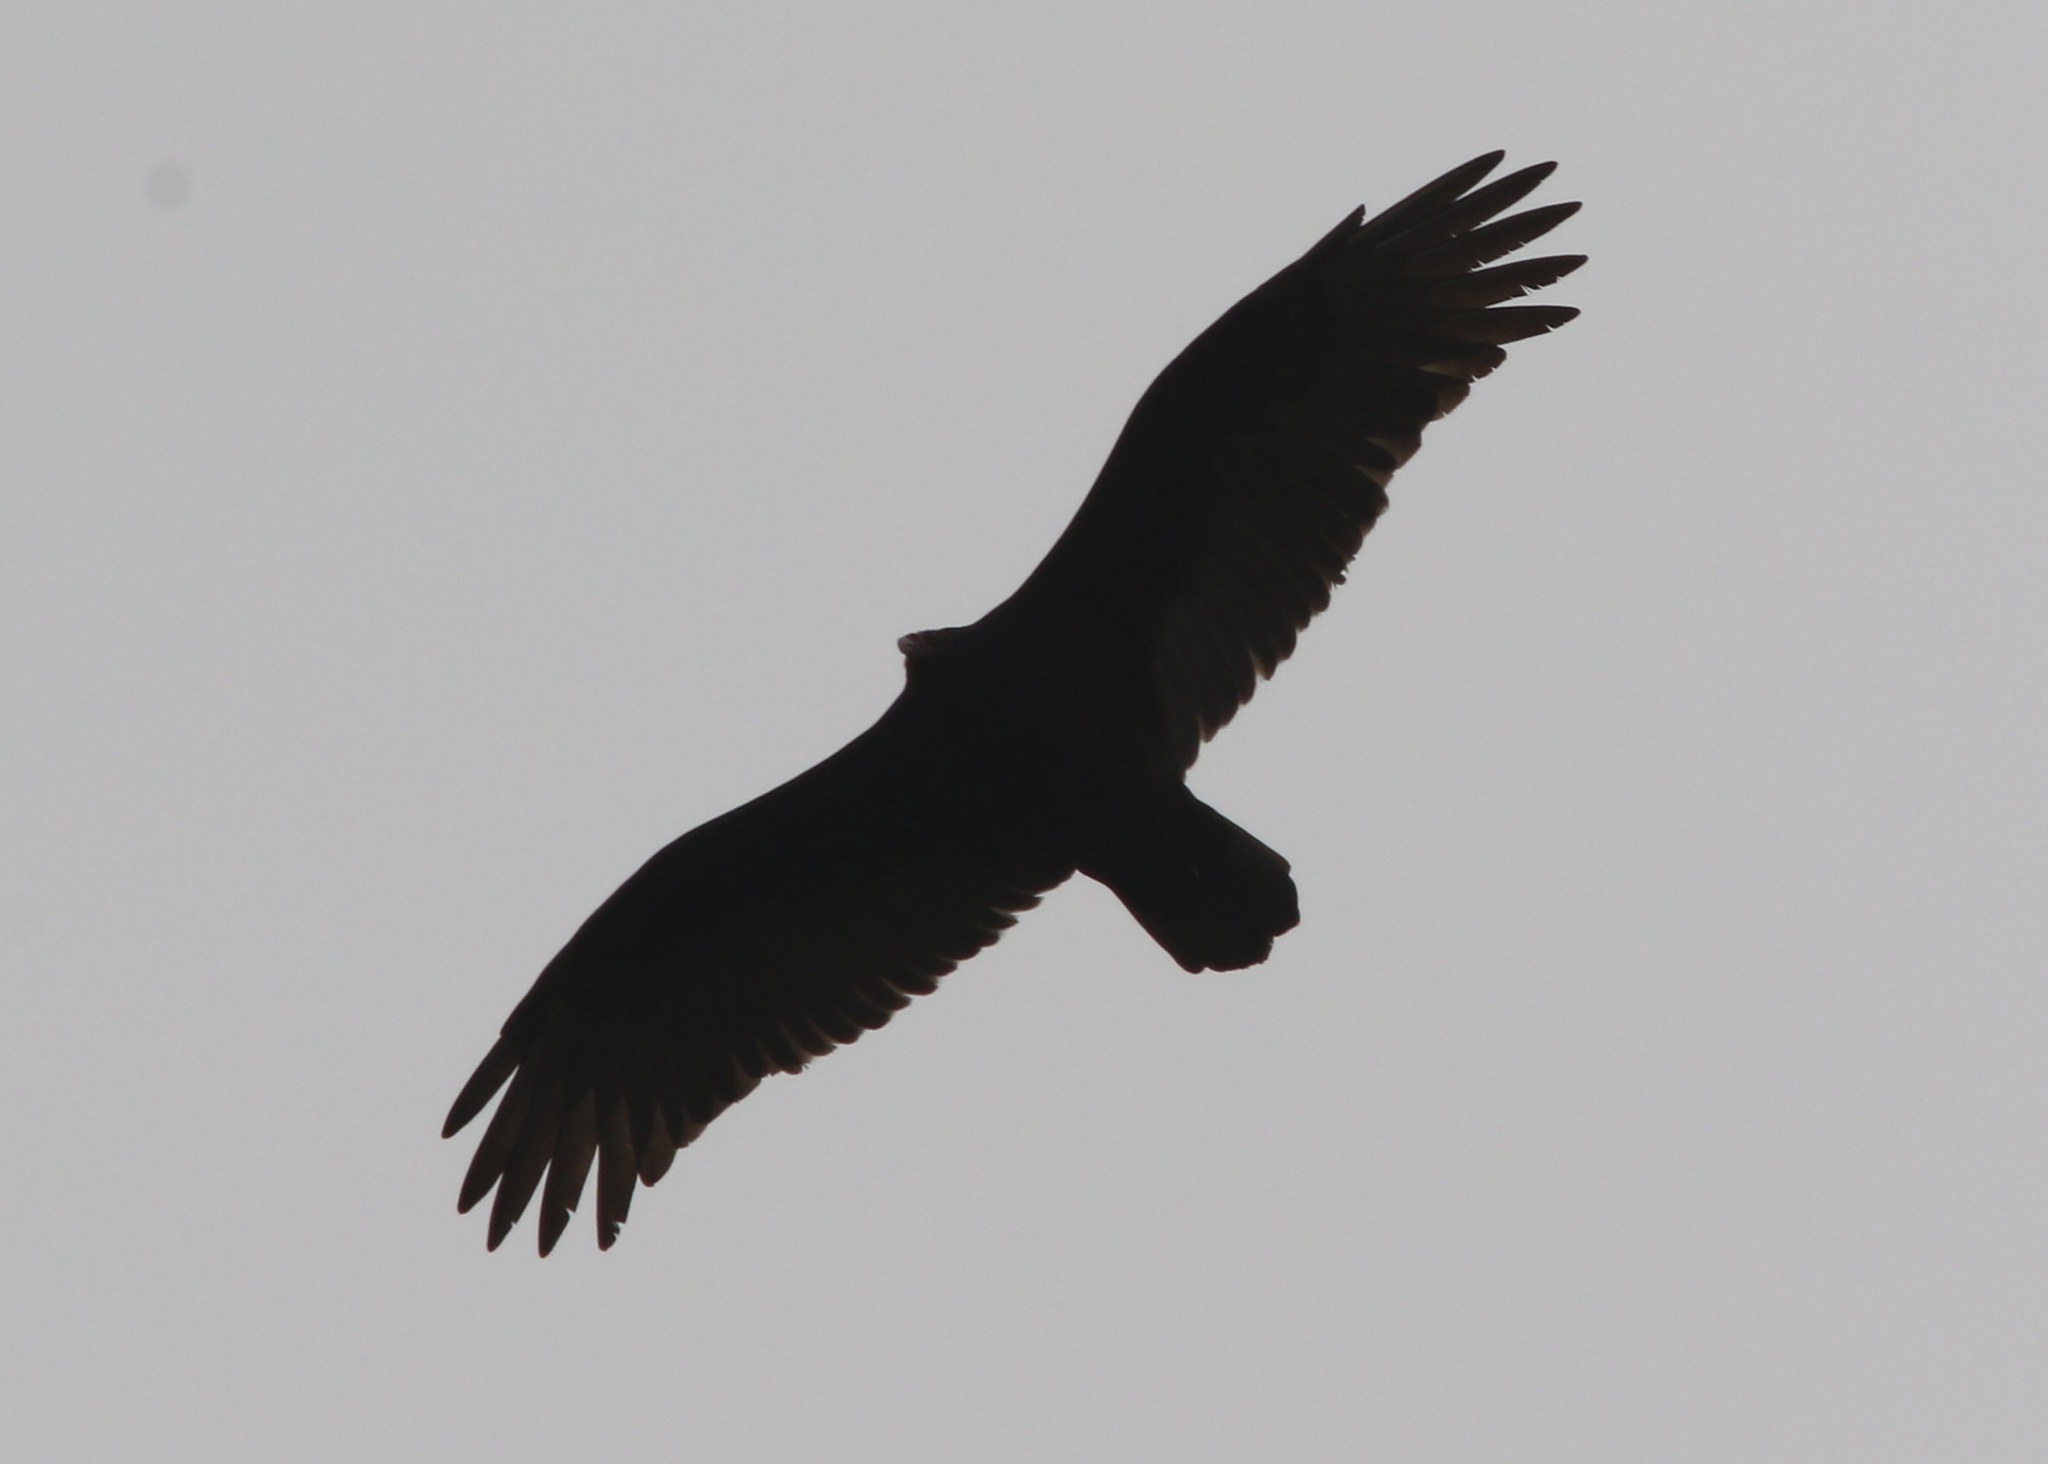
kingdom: Animalia
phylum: Chordata
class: Aves
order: Accipitriformes
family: Cathartidae
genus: Cathartes
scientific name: Cathartes aura
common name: Turkey vulture
